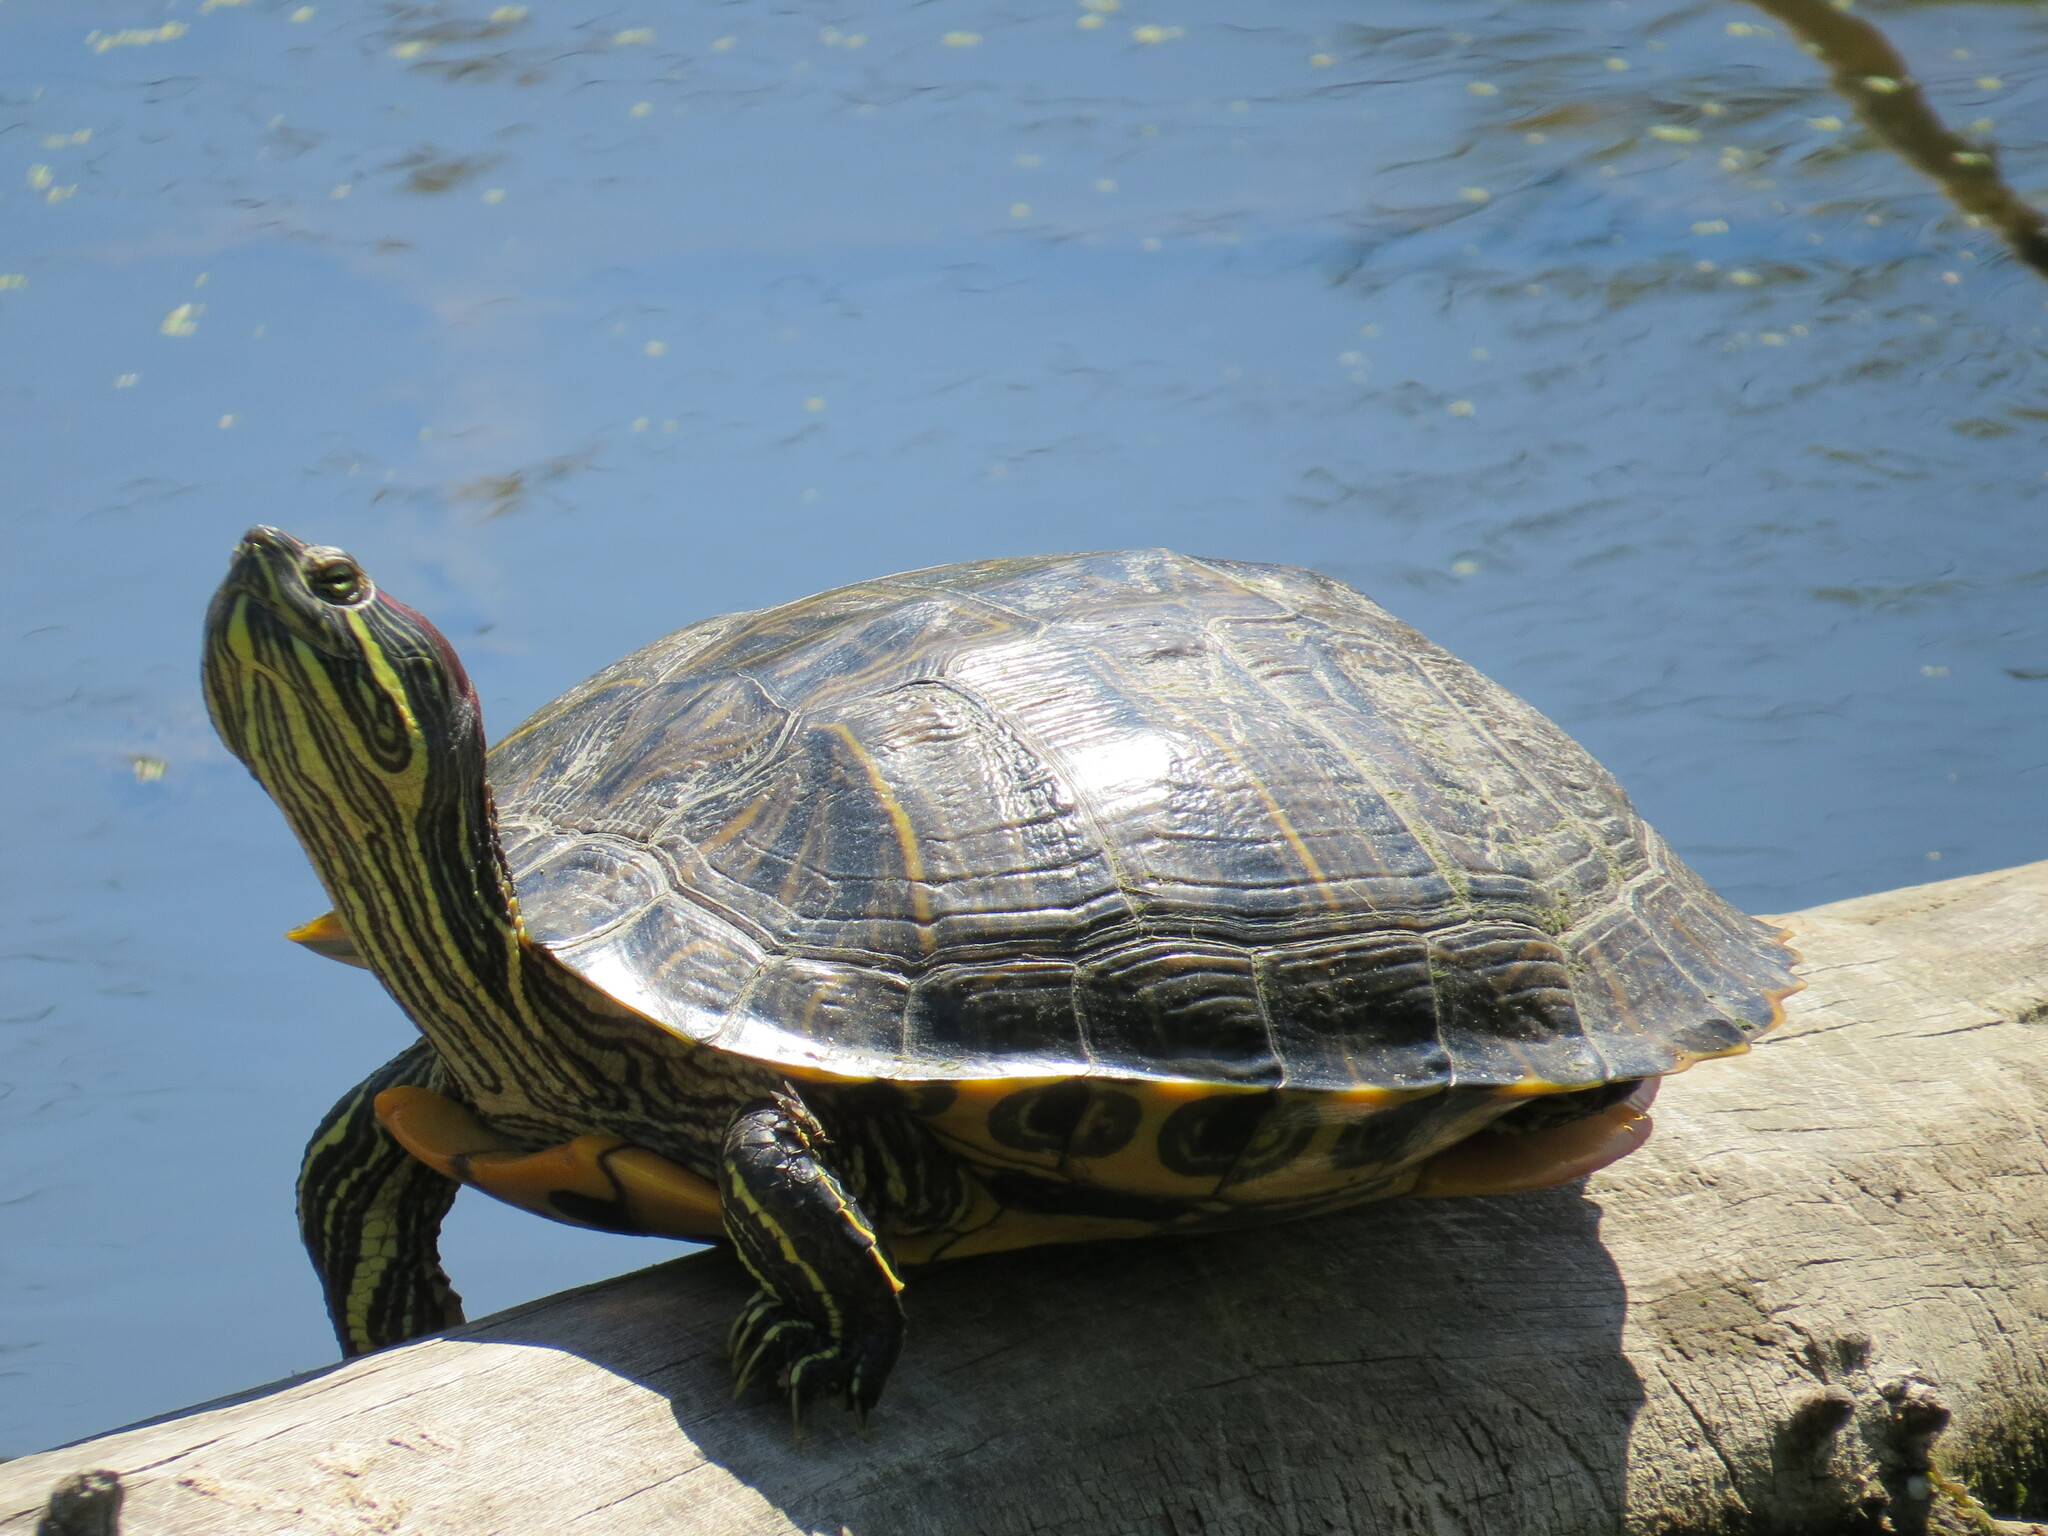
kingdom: Animalia
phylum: Chordata
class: Testudines
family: Emydidae
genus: Trachemys
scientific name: Trachemys scripta
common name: Slider
